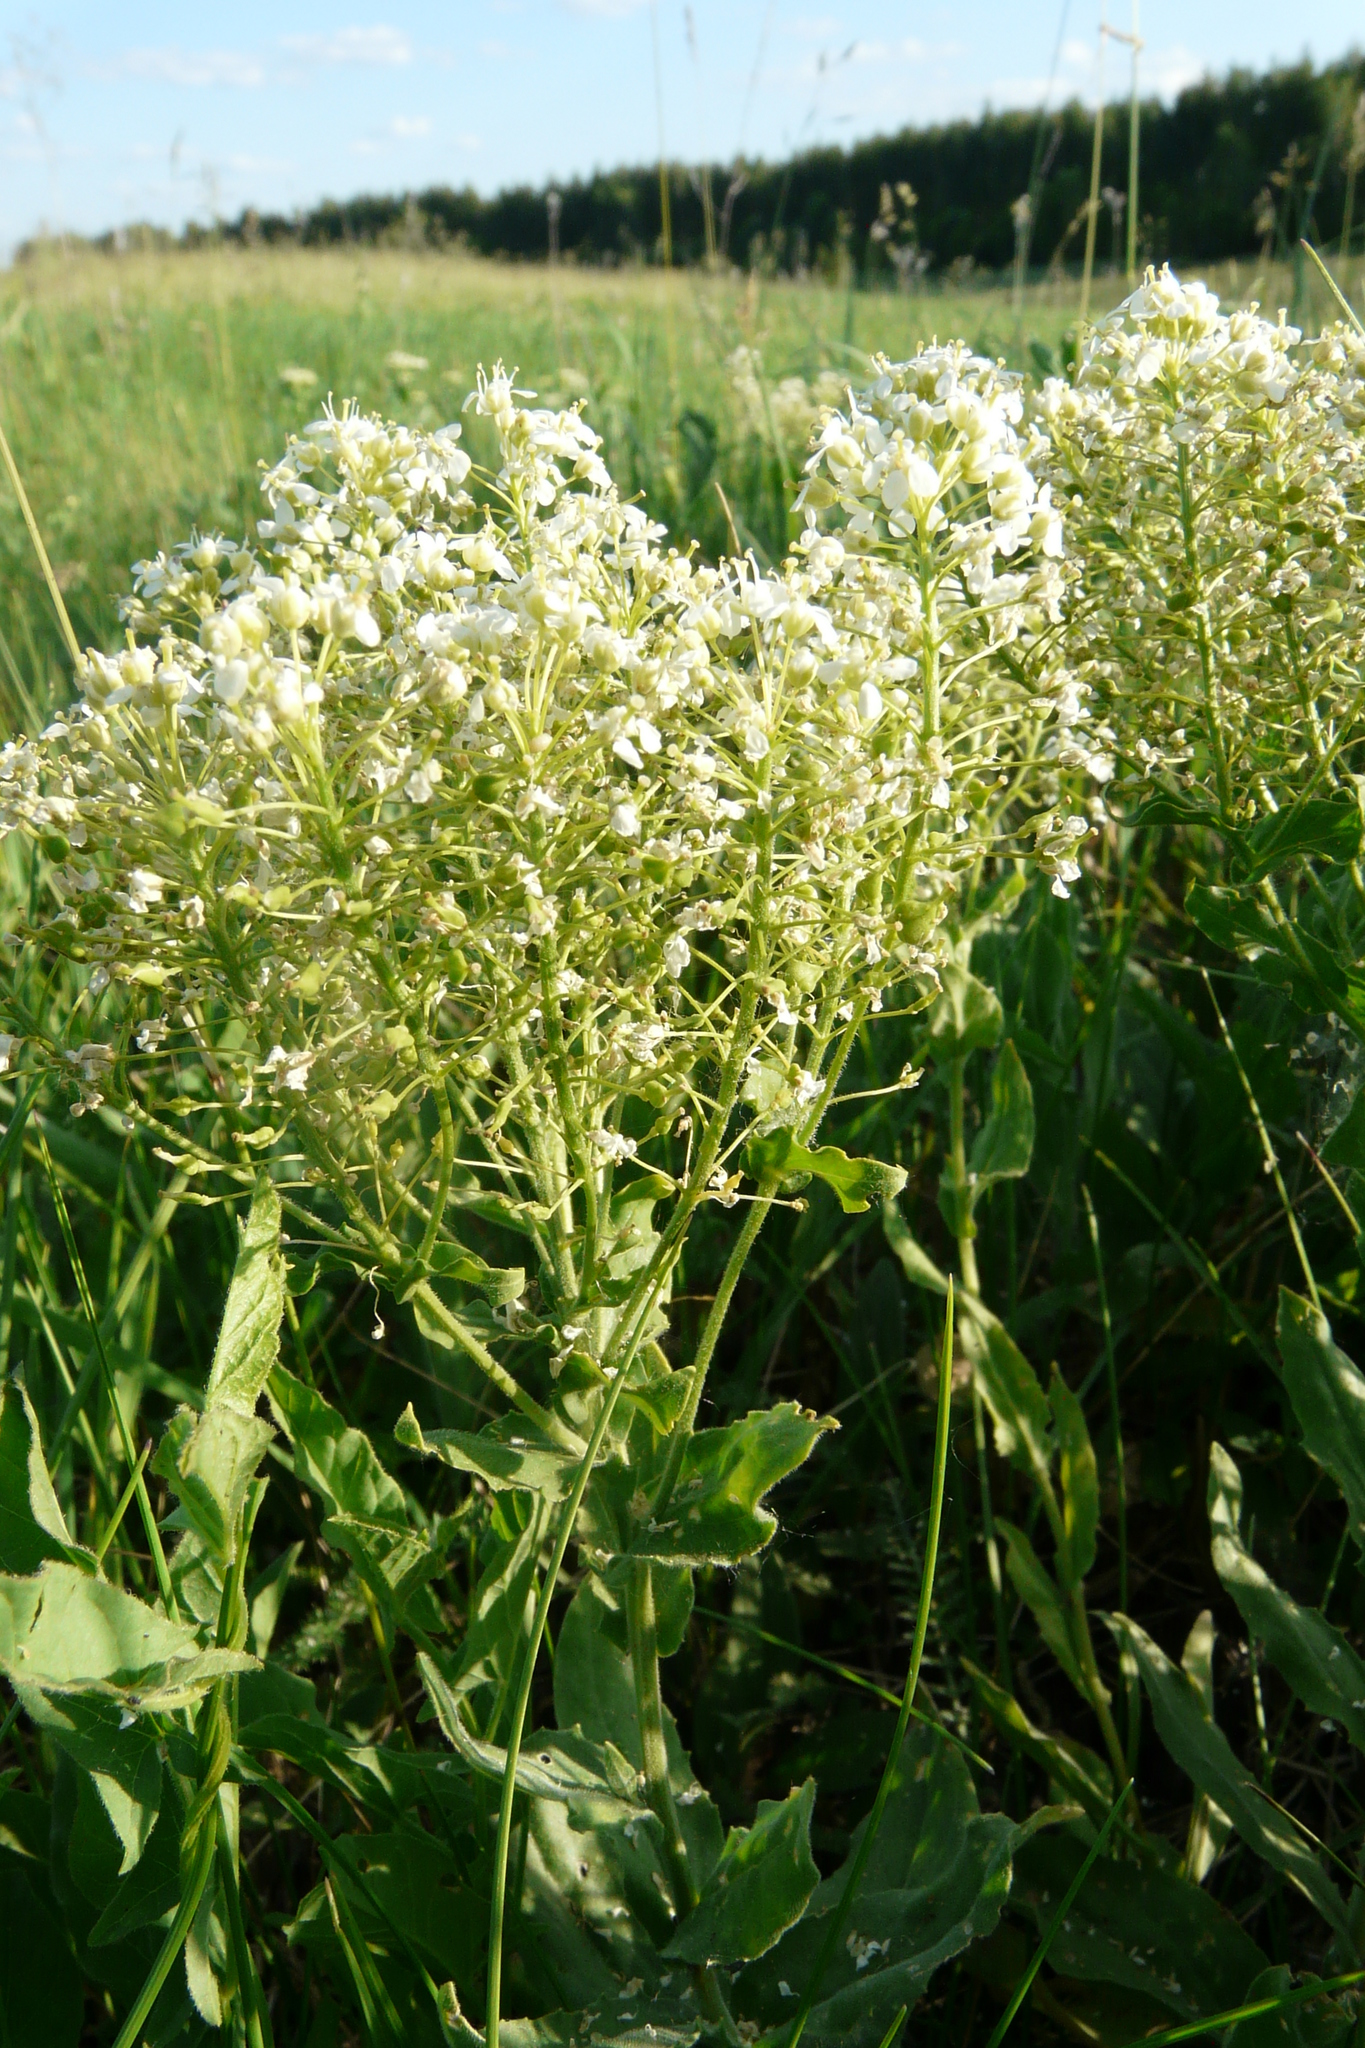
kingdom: Plantae
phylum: Tracheophyta
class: Magnoliopsida
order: Brassicales
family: Brassicaceae
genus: Lepidium
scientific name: Lepidium draba
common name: Hoary cress
